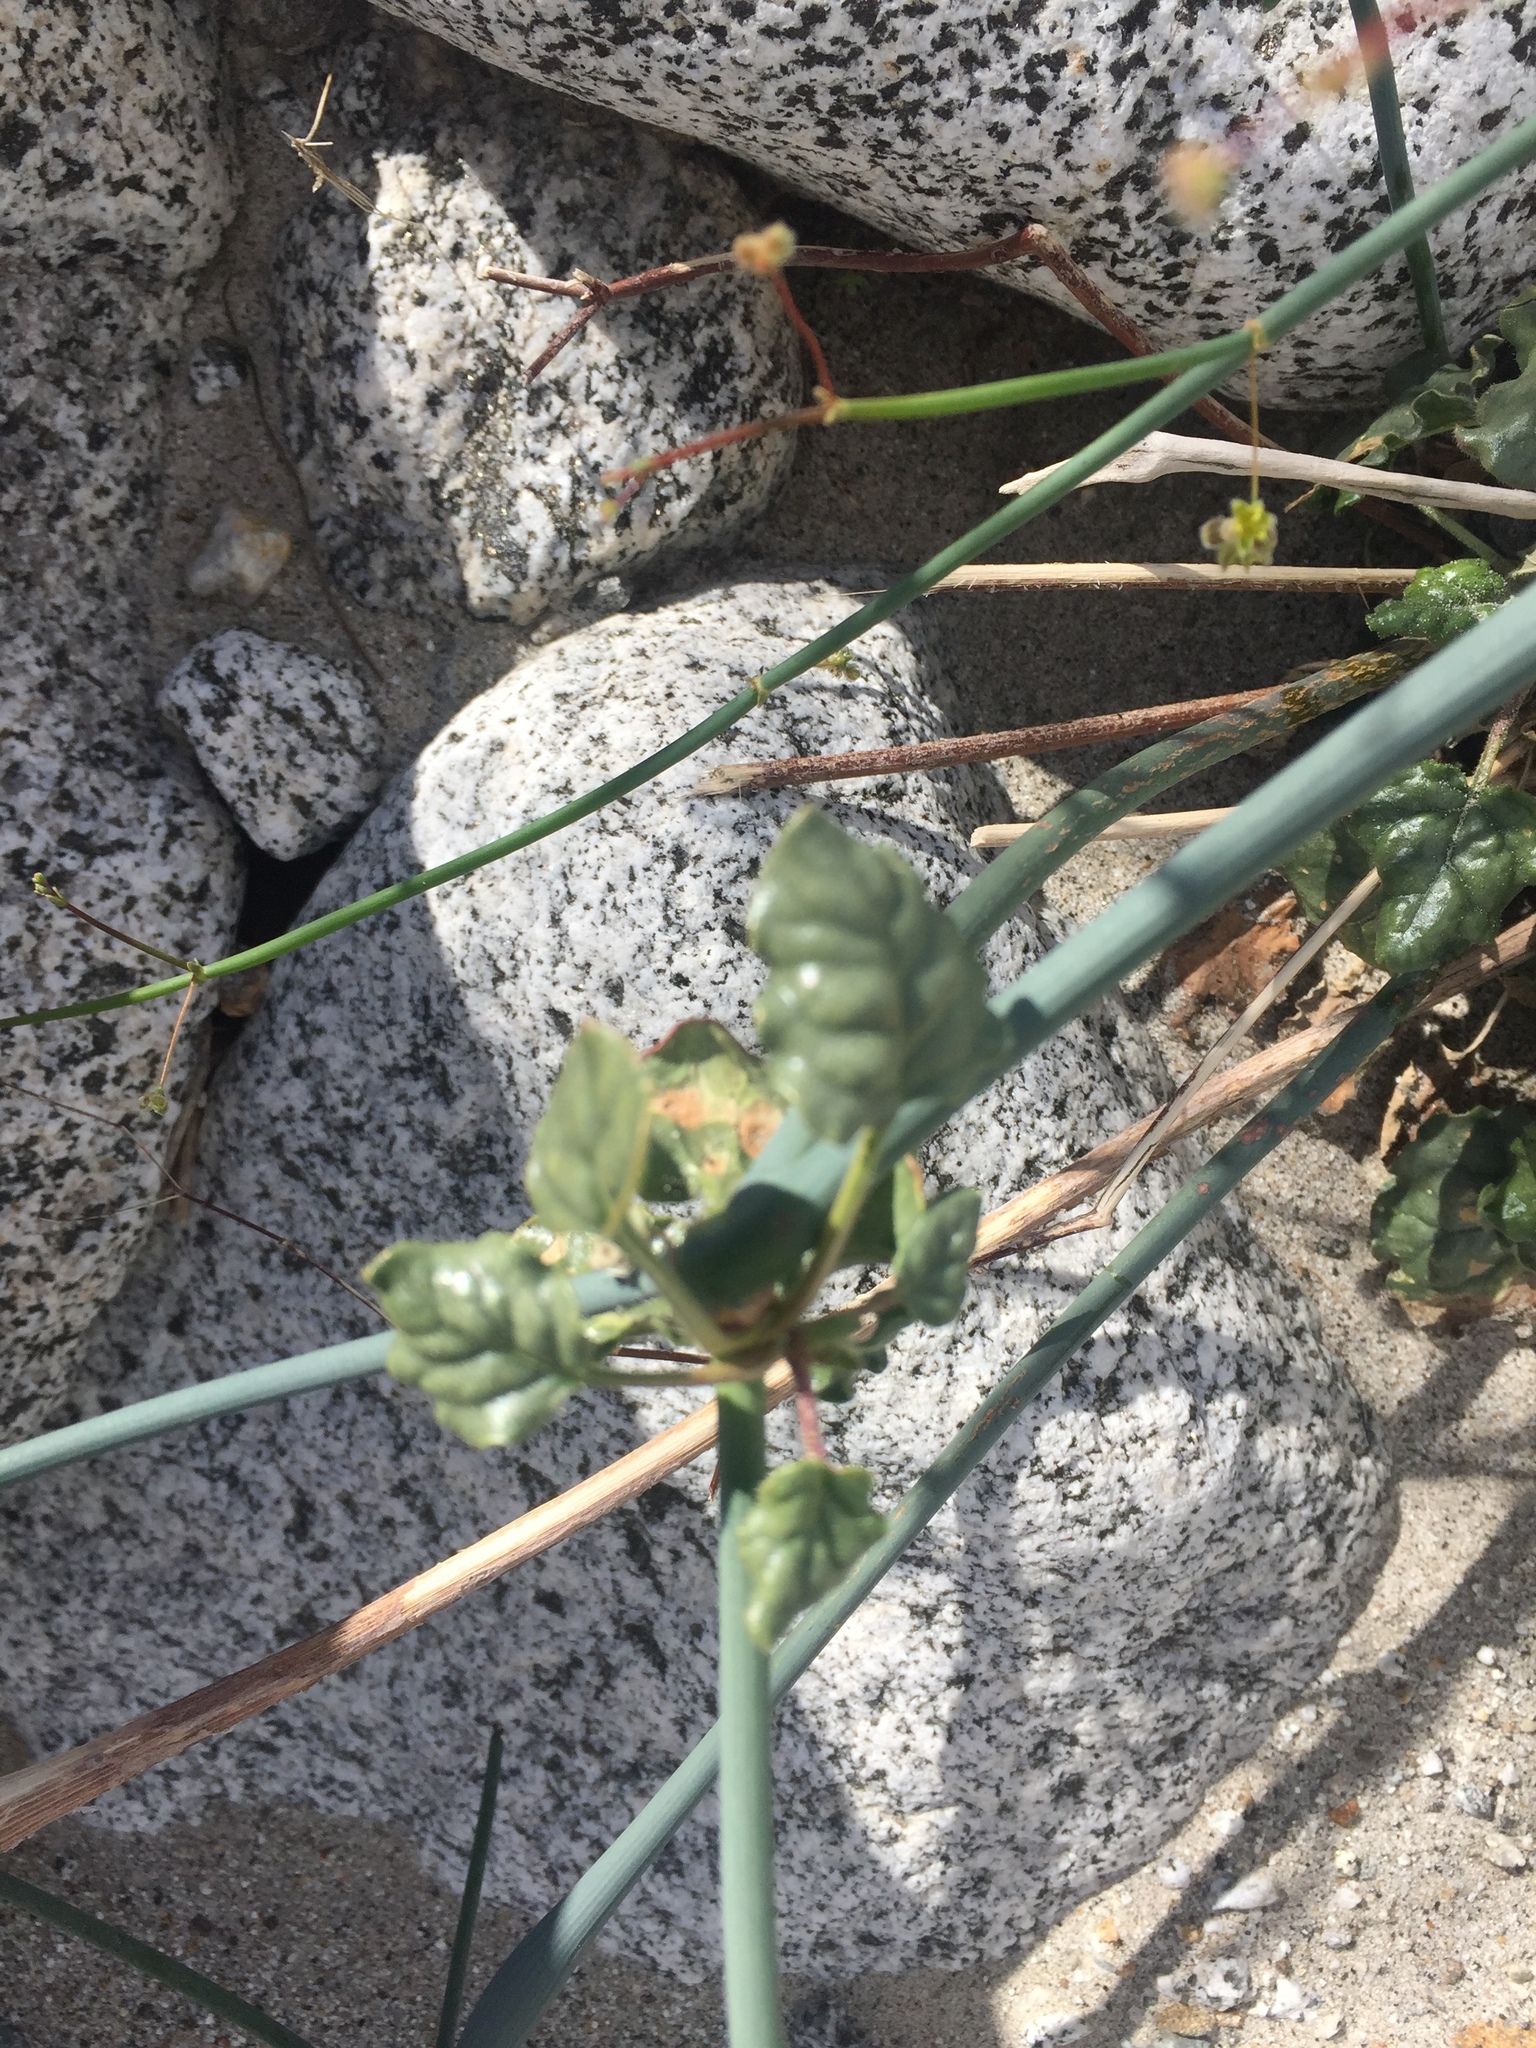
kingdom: Plantae
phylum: Tracheophyta
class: Magnoliopsida
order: Caryophyllales
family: Polygonaceae
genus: Eriogonum
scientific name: Eriogonum inflatum
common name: Desert trumpet
